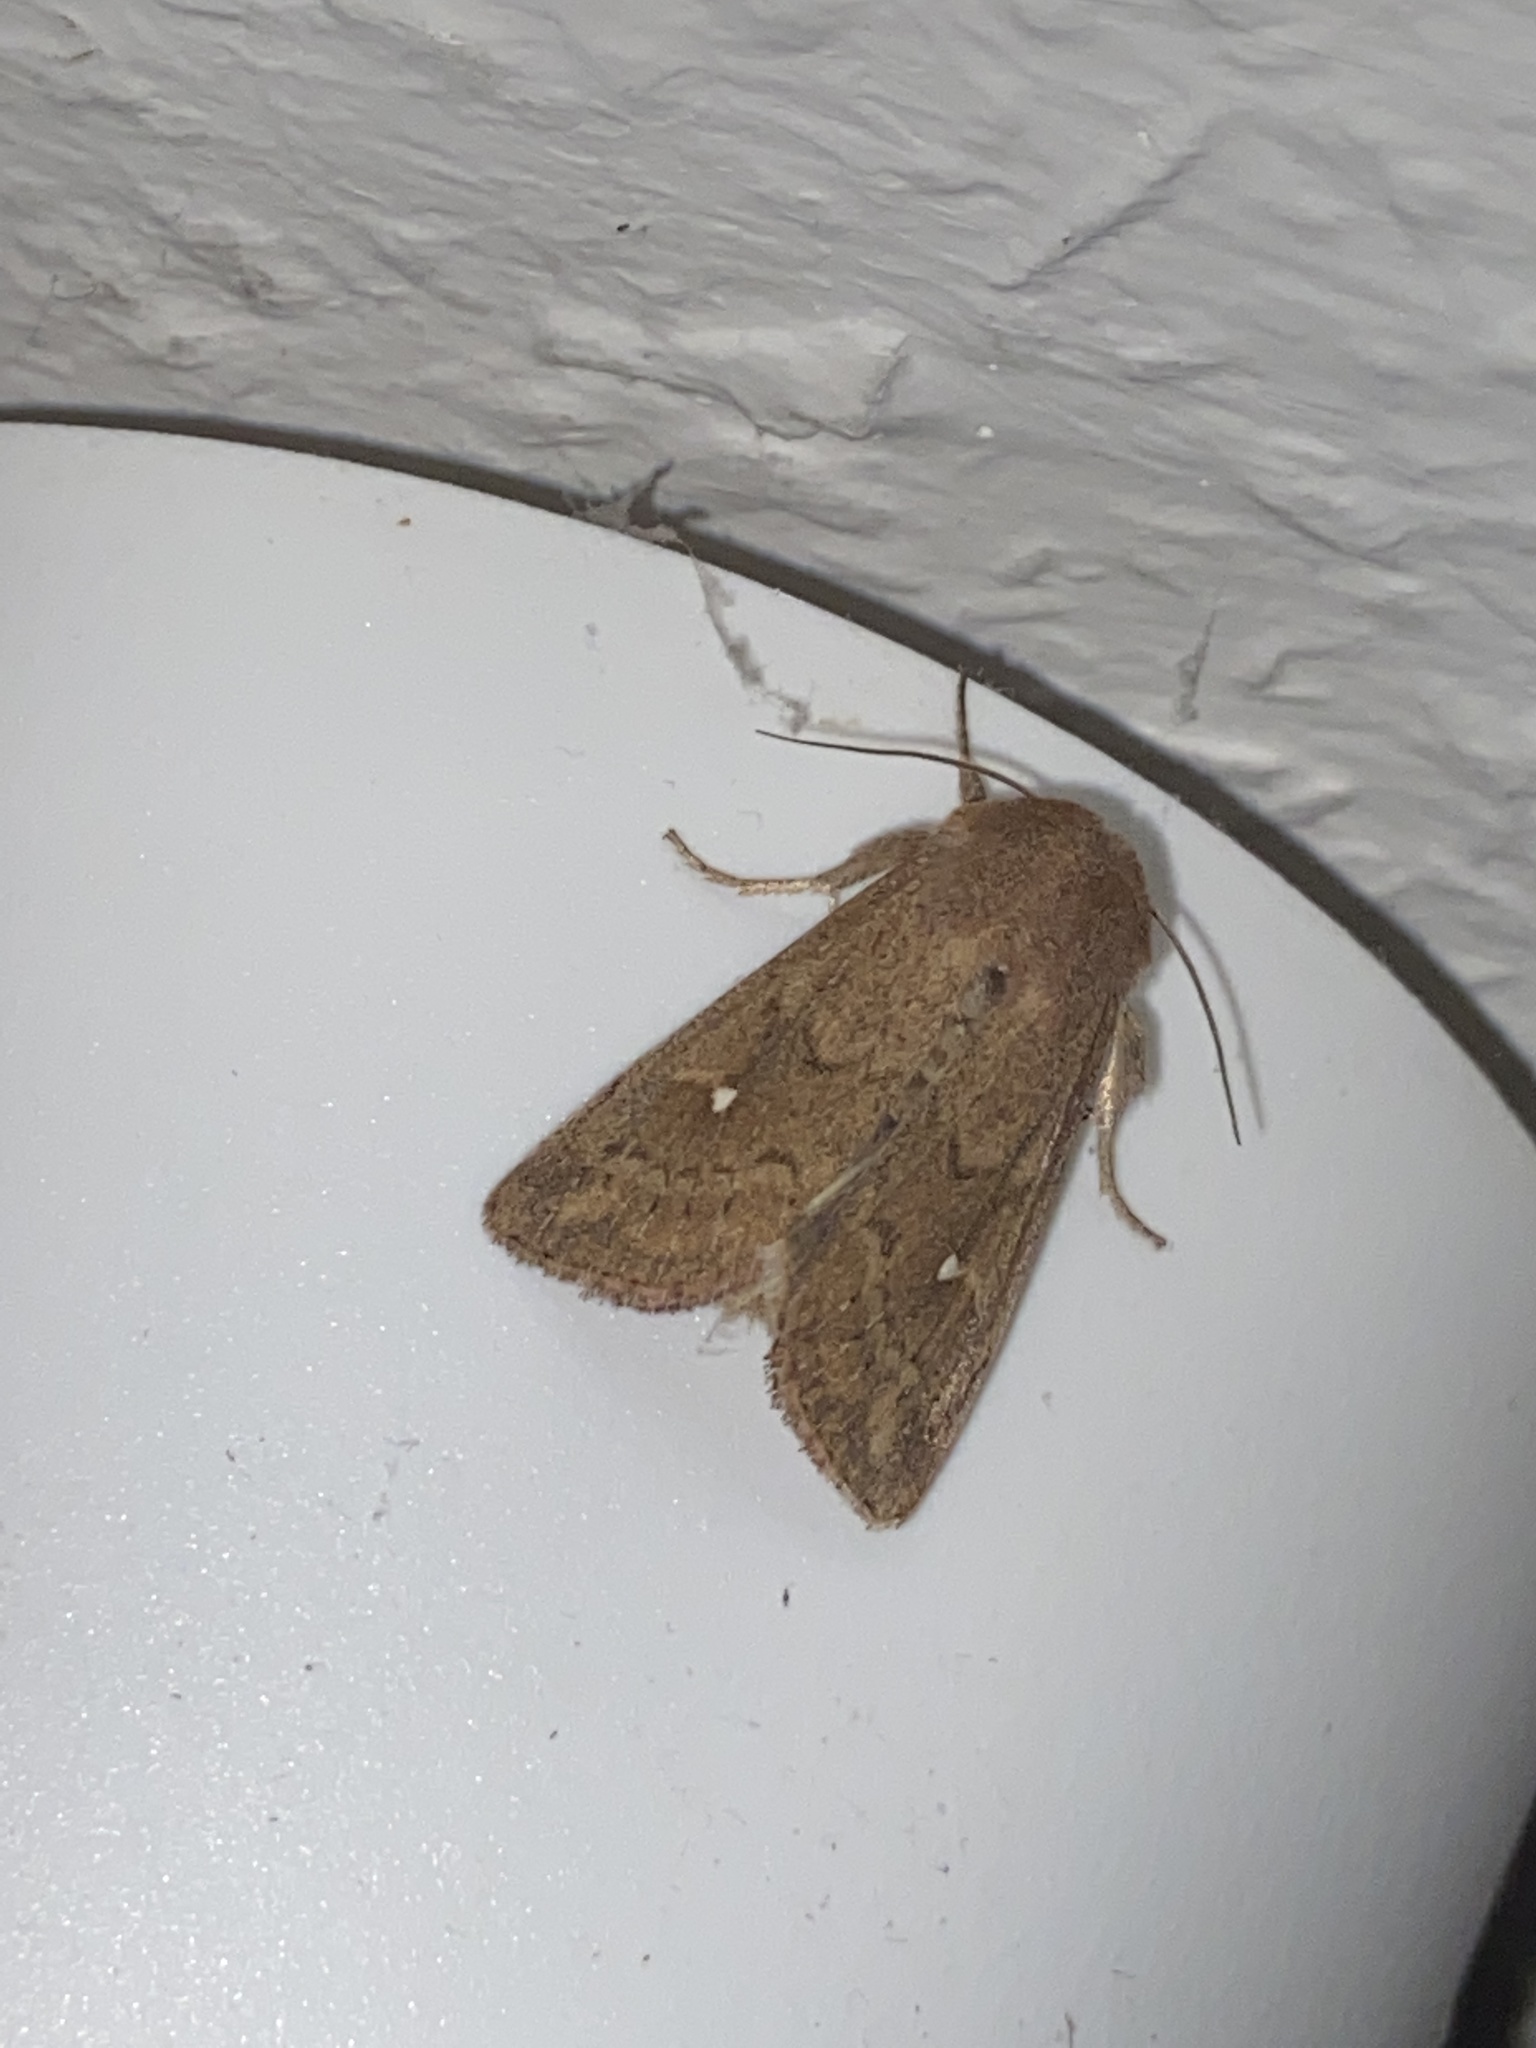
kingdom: Animalia
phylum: Arthropoda
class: Insecta
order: Lepidoptera
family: Noctuidae
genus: Mythimna
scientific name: Mythimna albipuncta
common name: White-point
